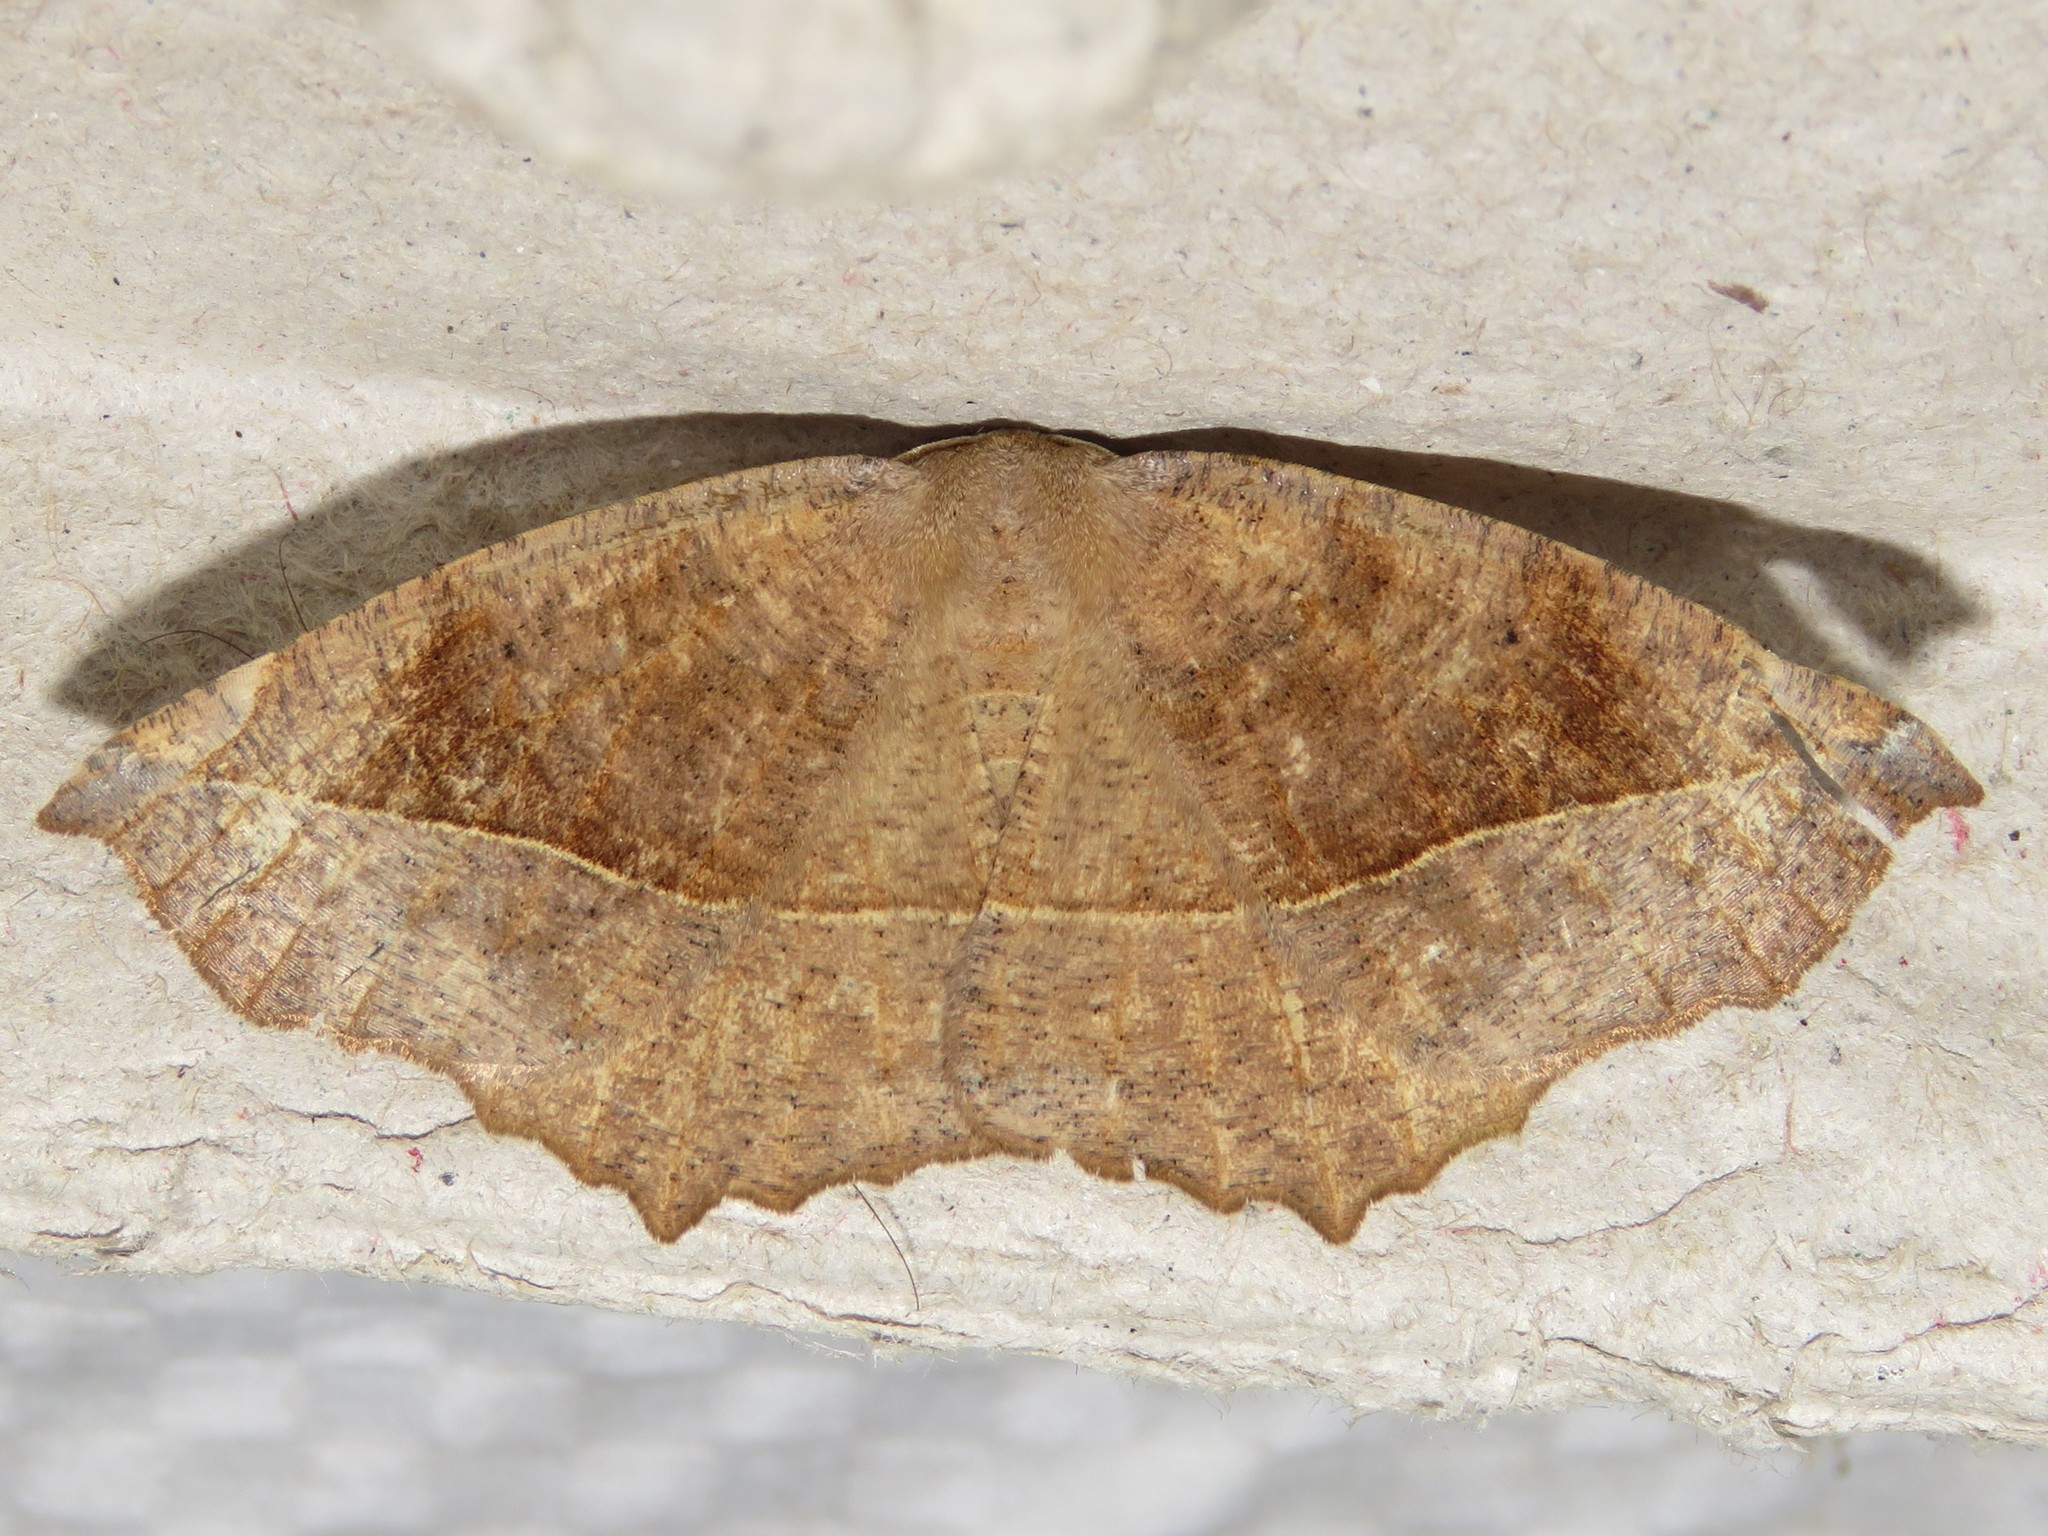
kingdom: Animalia
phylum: Arthropoda
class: Insecta
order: Lepidoptera
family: Geometridae
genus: Eutrapela
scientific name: Eutrapela clemataria
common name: Curved-toothed geometer
